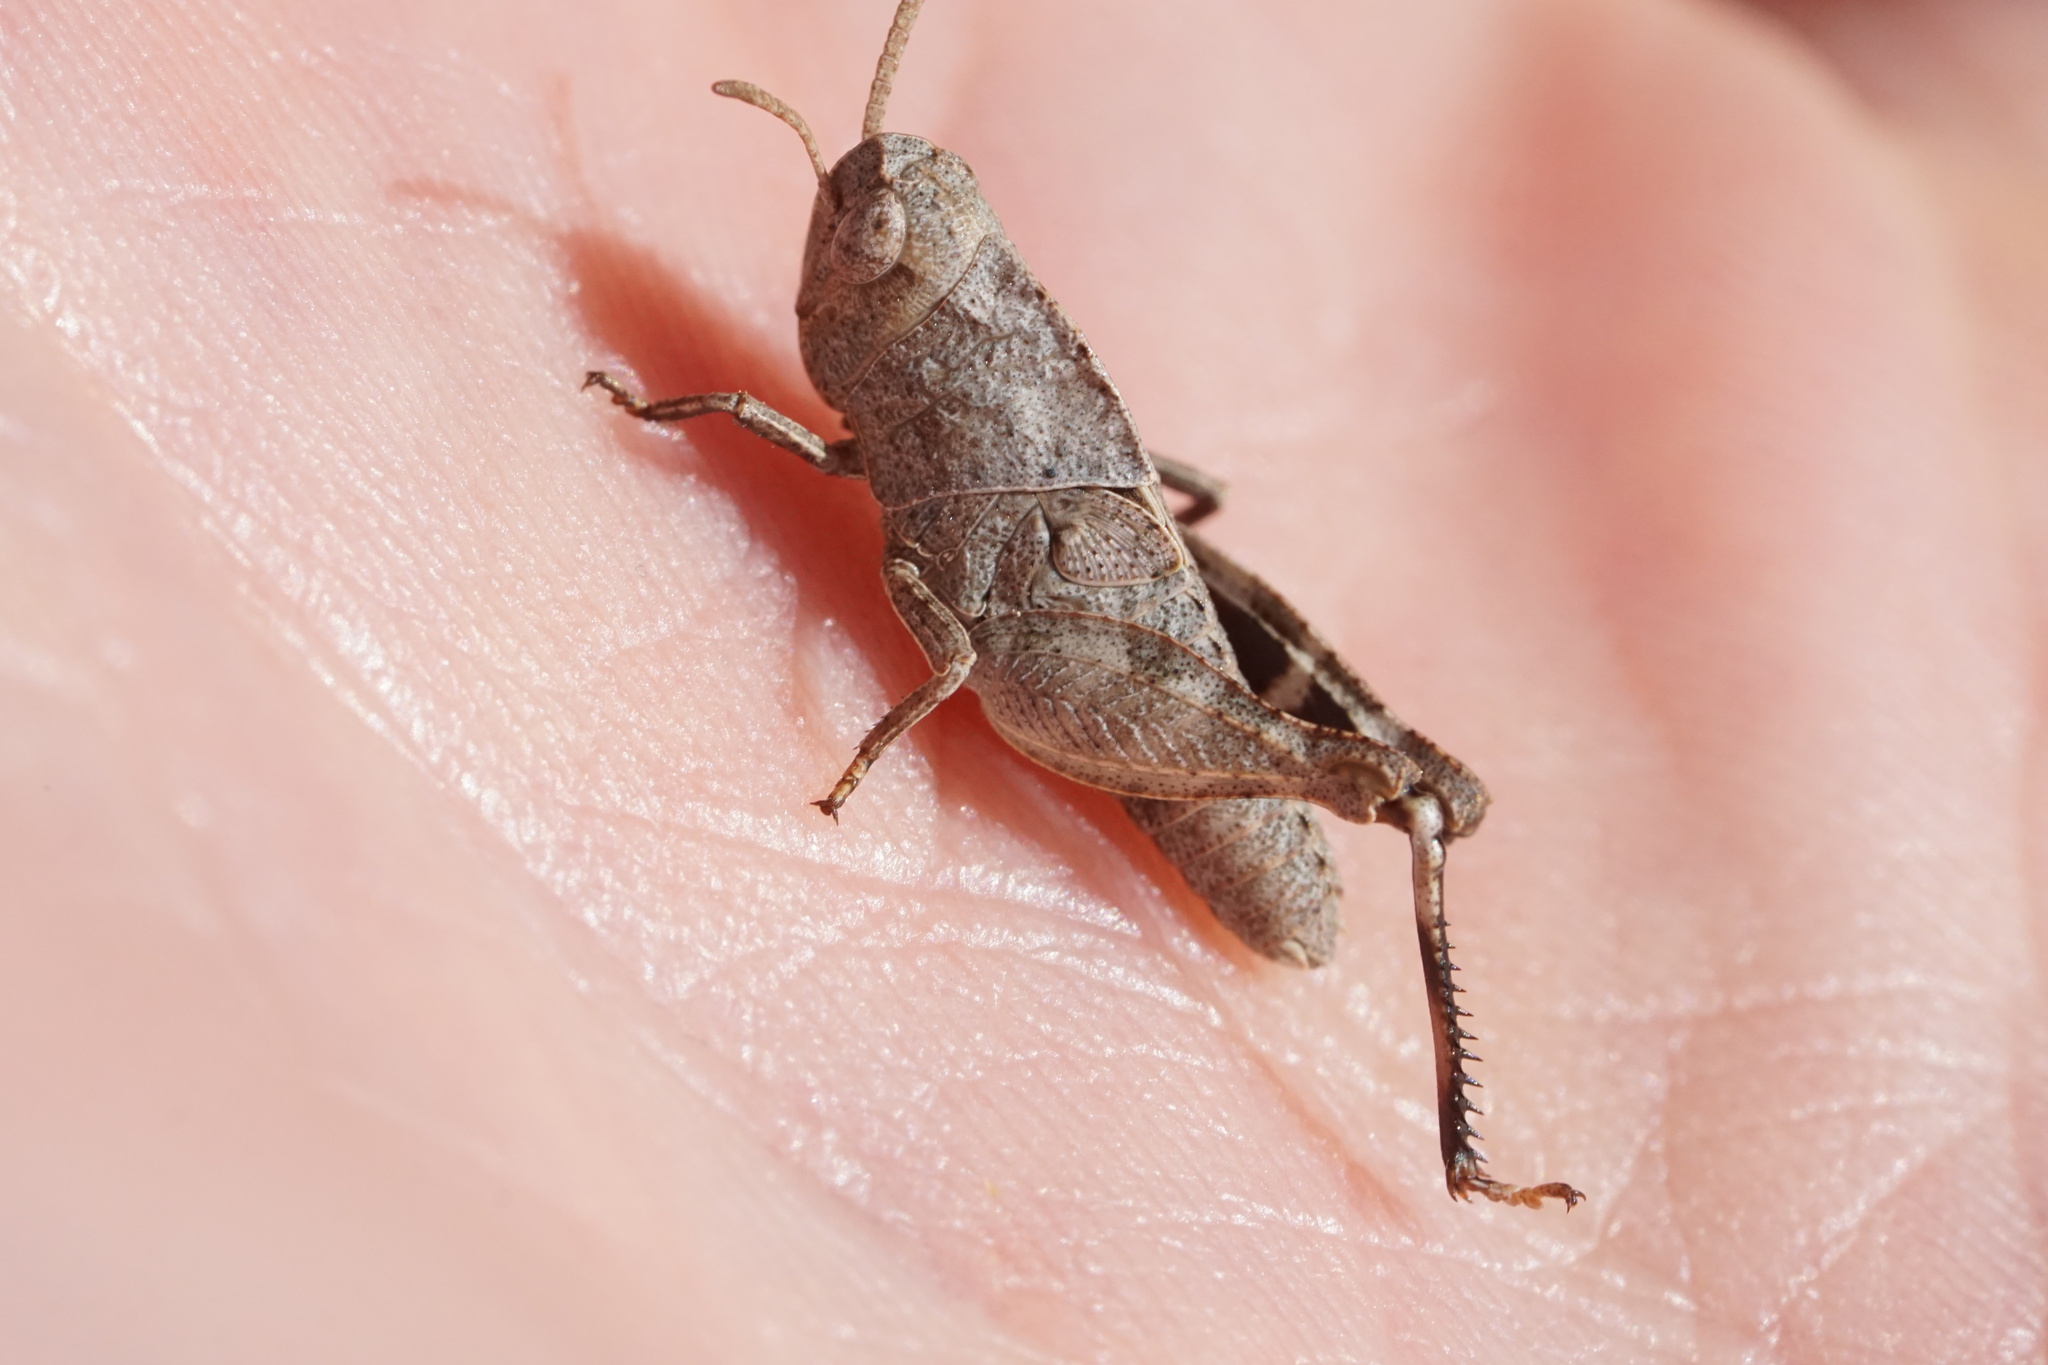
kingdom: Animalia
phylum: Arthropoda
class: Insecta
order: Orthoptera
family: Acrididae
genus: Arphia
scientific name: Arphia sulphurea
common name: Spring yellow-winged locust
